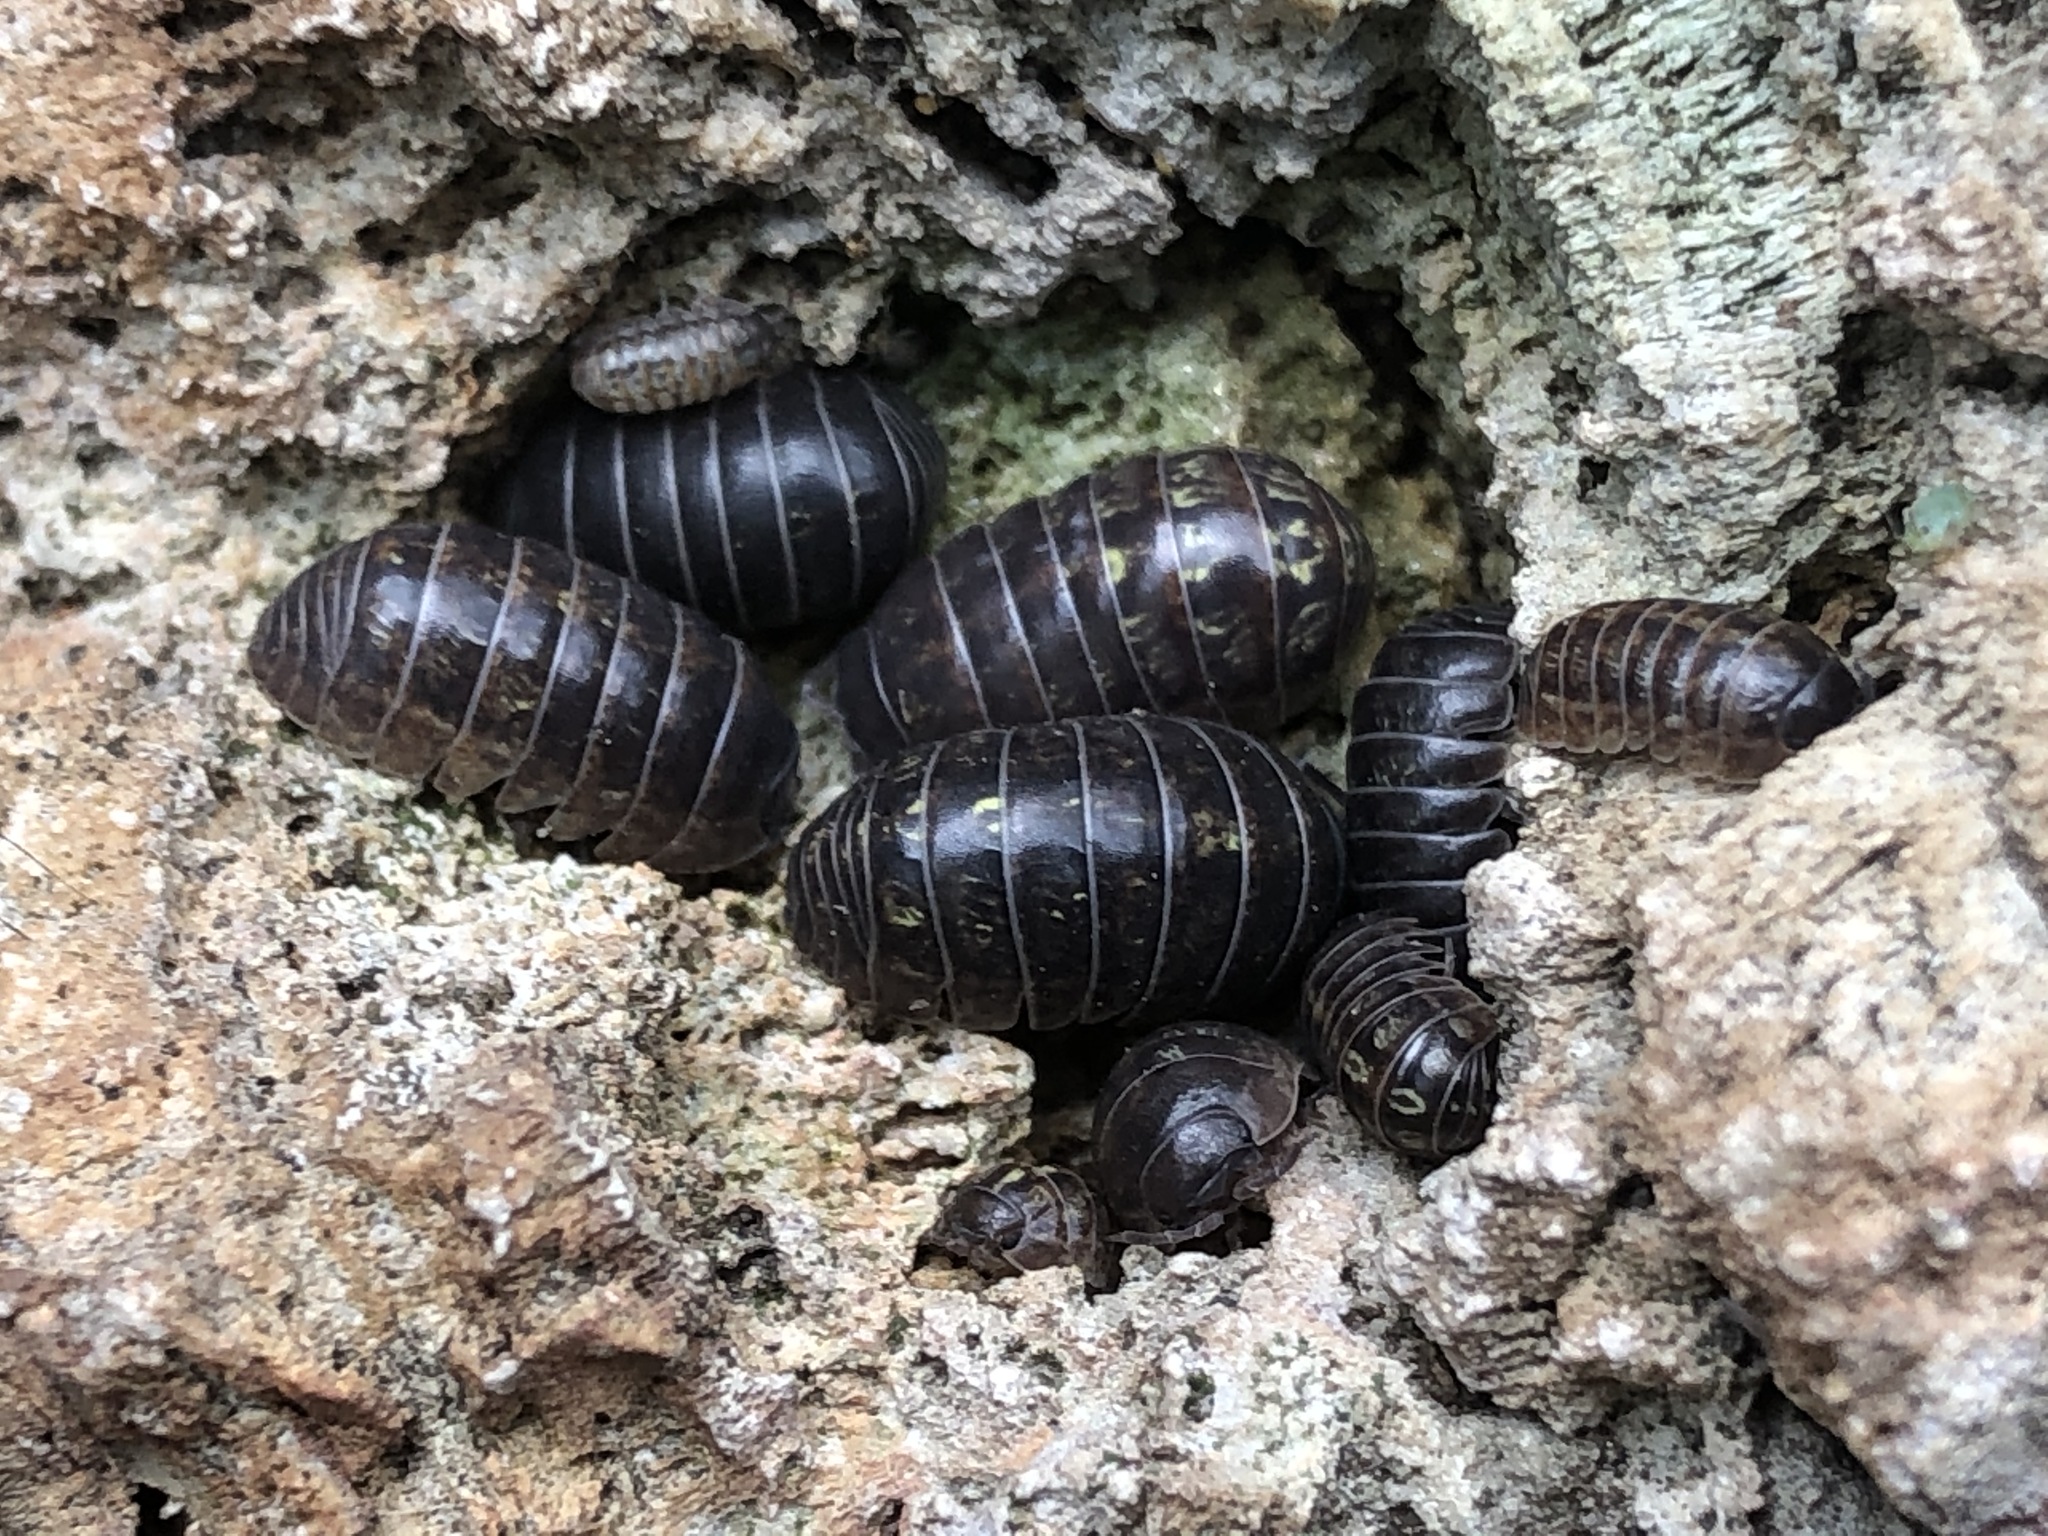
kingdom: Animalia
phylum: Arthropoda
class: Malacostraca
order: Isopoda
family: Armadillidiidae
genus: Armadillidium
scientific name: Armadillidium vulgare
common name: Common pill woodlouse
